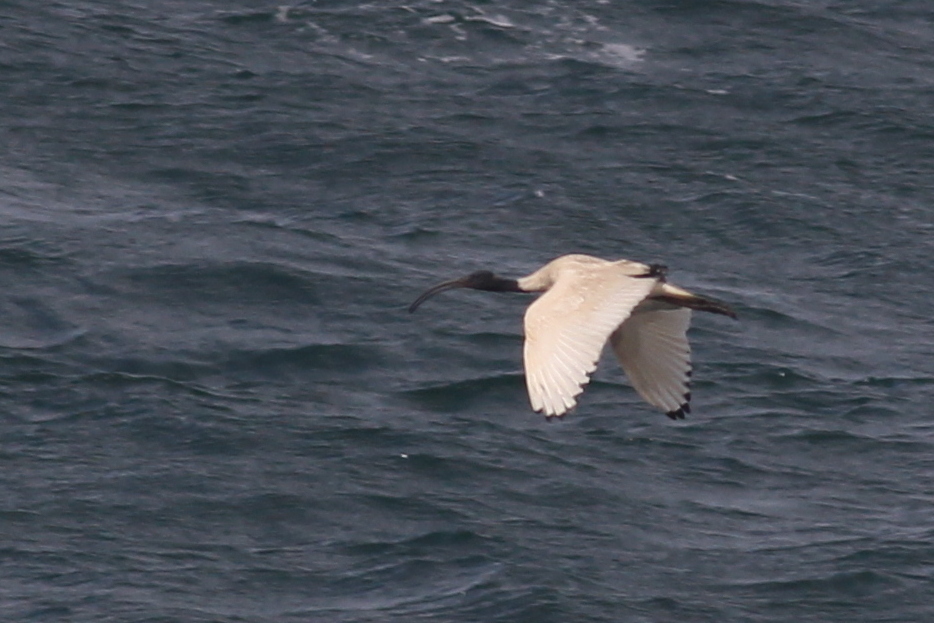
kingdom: Animalia
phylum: Chordata
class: Aves
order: Pelecaniformes
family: Threskiornithidae
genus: Threskiornis
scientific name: Threskiornis molucca
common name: Australian white ibis
